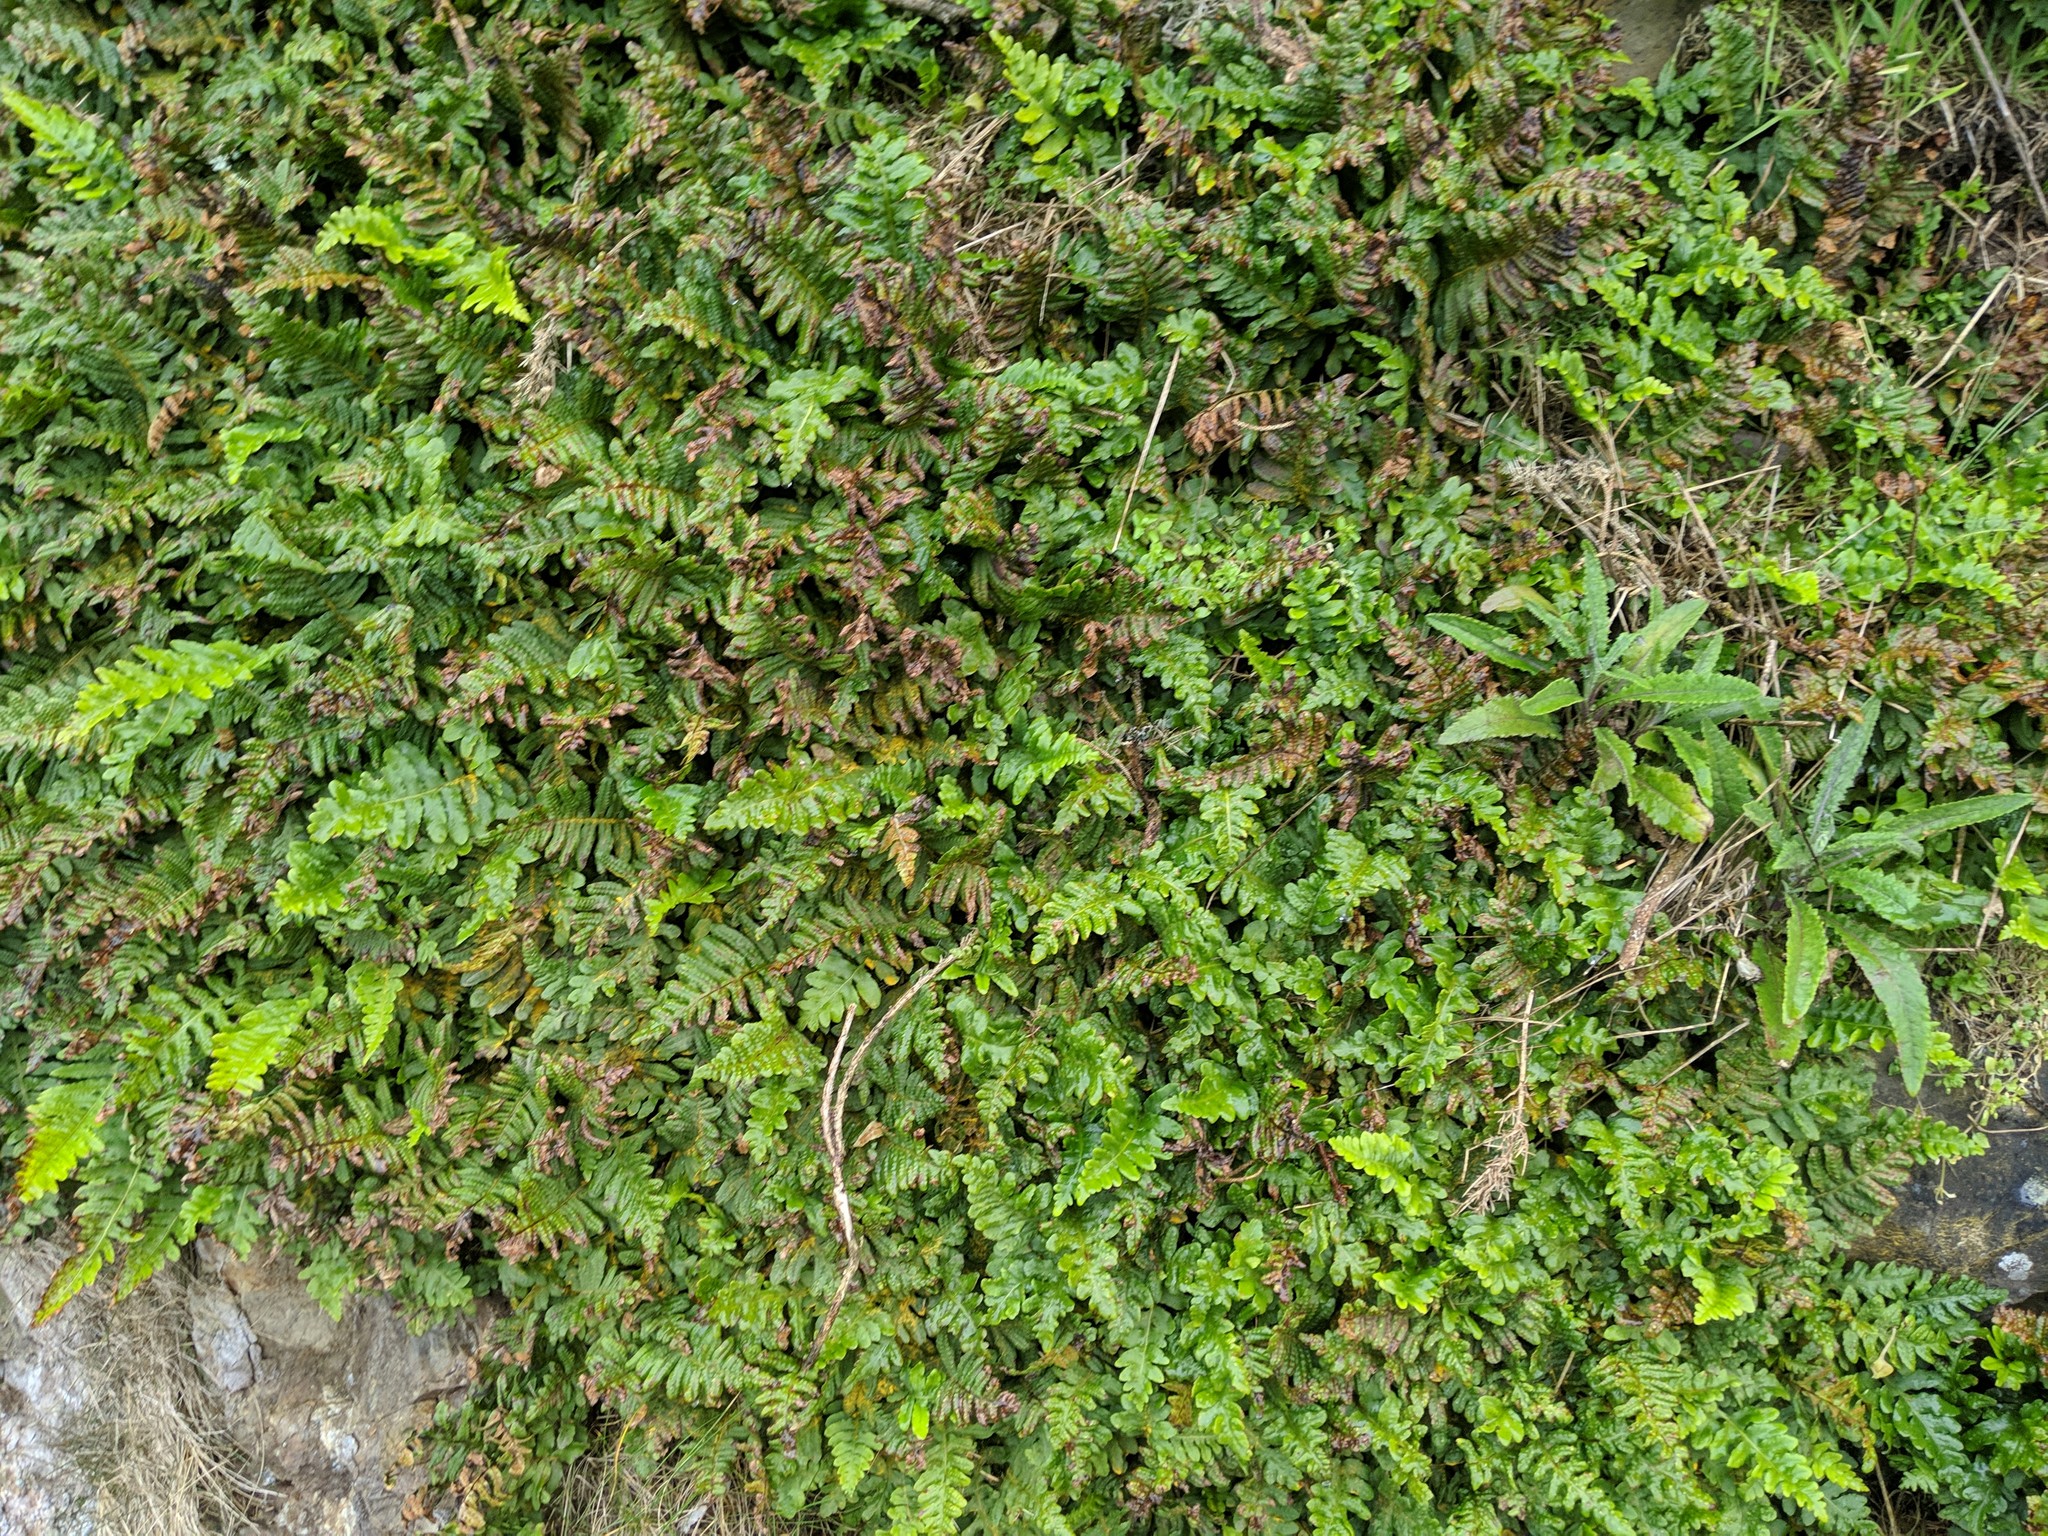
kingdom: Plantae
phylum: Tracheophyta
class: Polypodiopsida
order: Polypodiales
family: Polypodiaceae
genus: Polypodium
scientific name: Polypodium calirhiza
